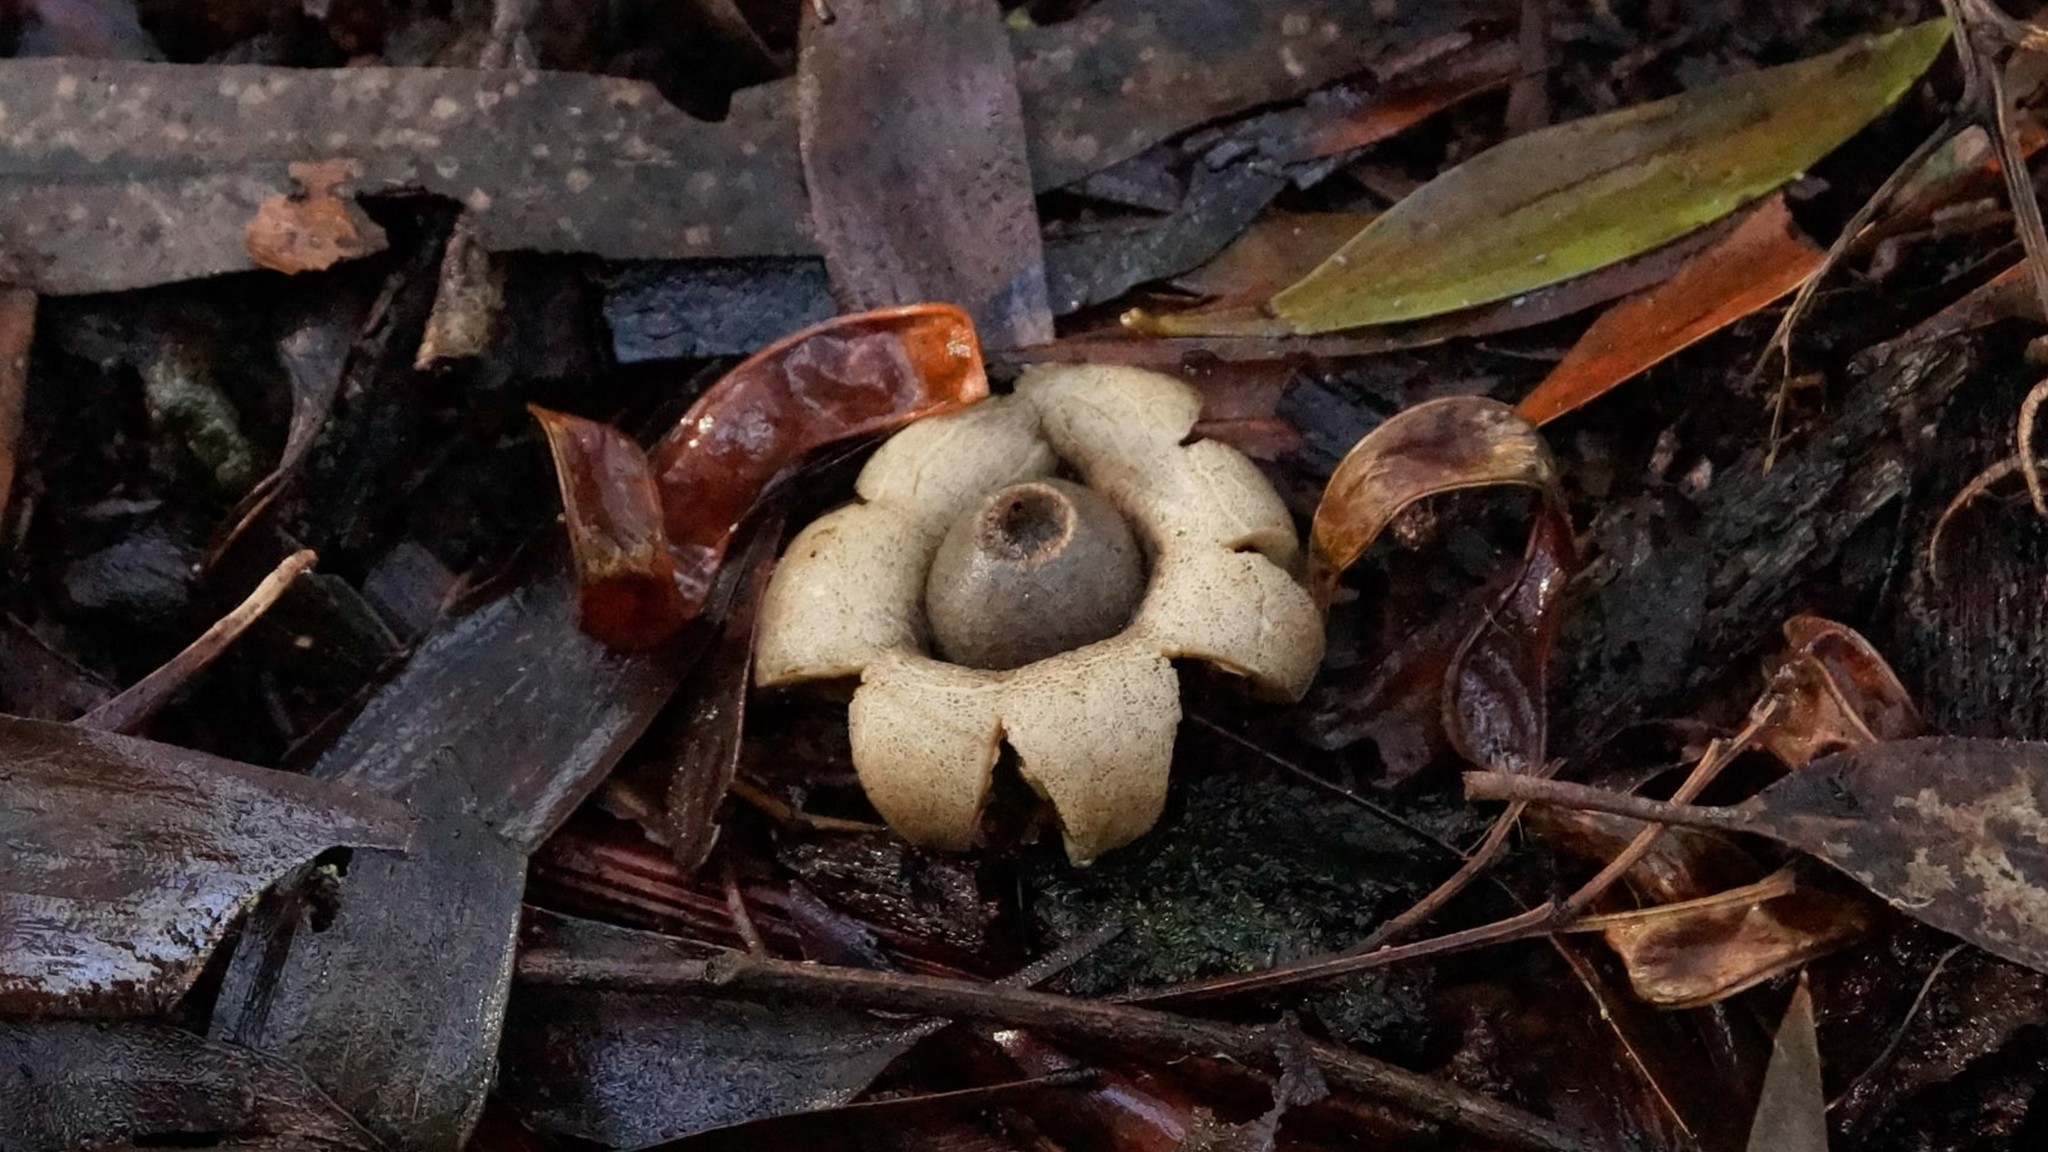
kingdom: Fungi
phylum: Basidiomycota
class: Agaricomycetes
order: Geastrales
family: Geastraceae
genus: Geastrum
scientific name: Geastrum triplex
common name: Collared earthstar
